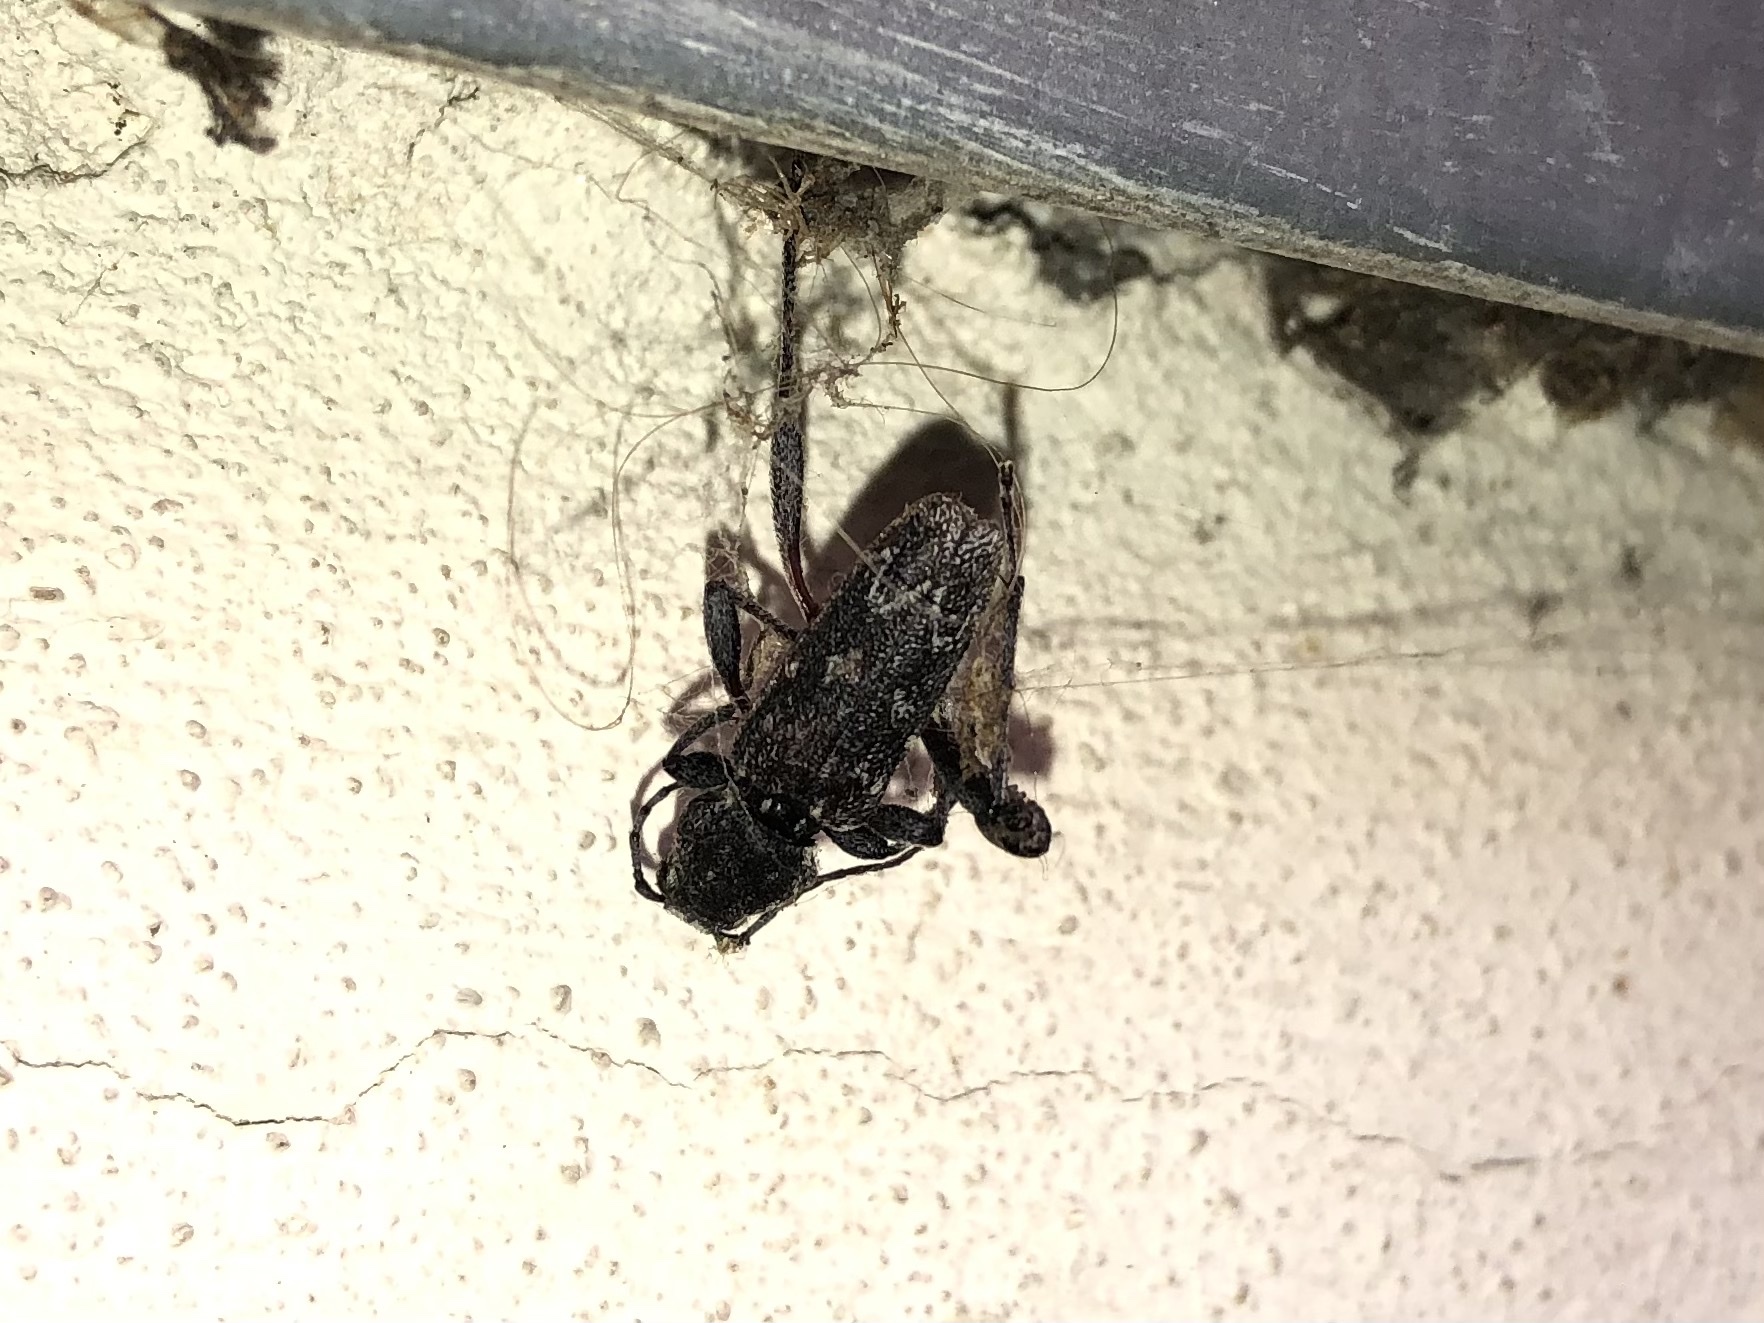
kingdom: Animalia
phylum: Arthropoda
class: Insecta
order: Coleoptera
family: Cerambycidae
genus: Xylotrechus
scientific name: Xylotrechus rusticus
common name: Grey tiger long-horned beetle
